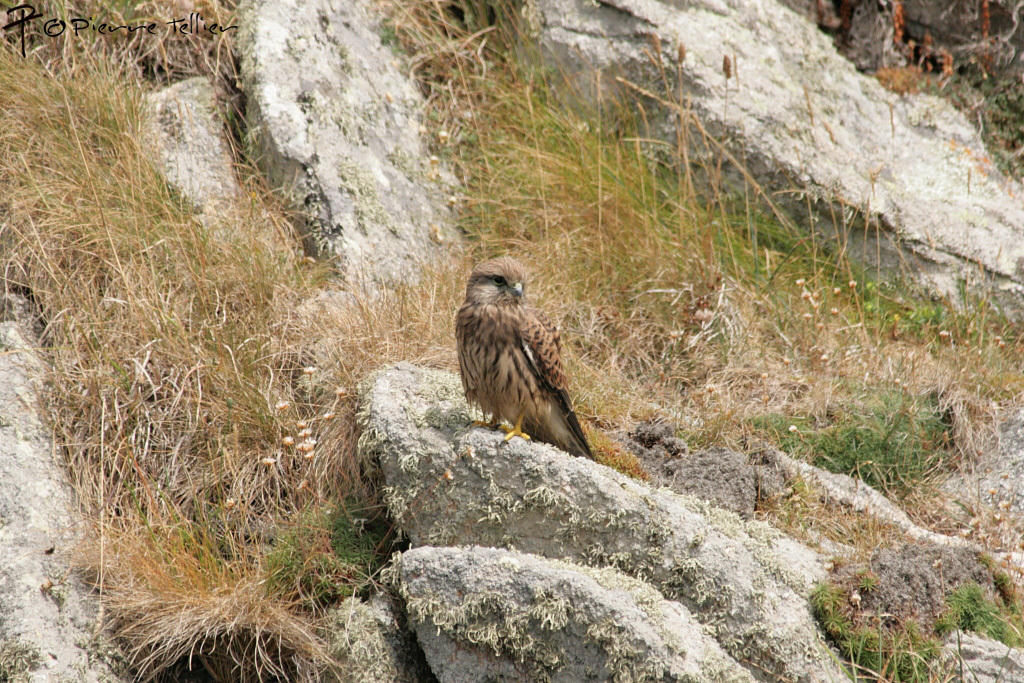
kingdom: Animalia
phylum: Chordata
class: Aves
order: Falconiformes
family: Falconidae
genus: Falco
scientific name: Falco tinnunculus
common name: Common kestrel
